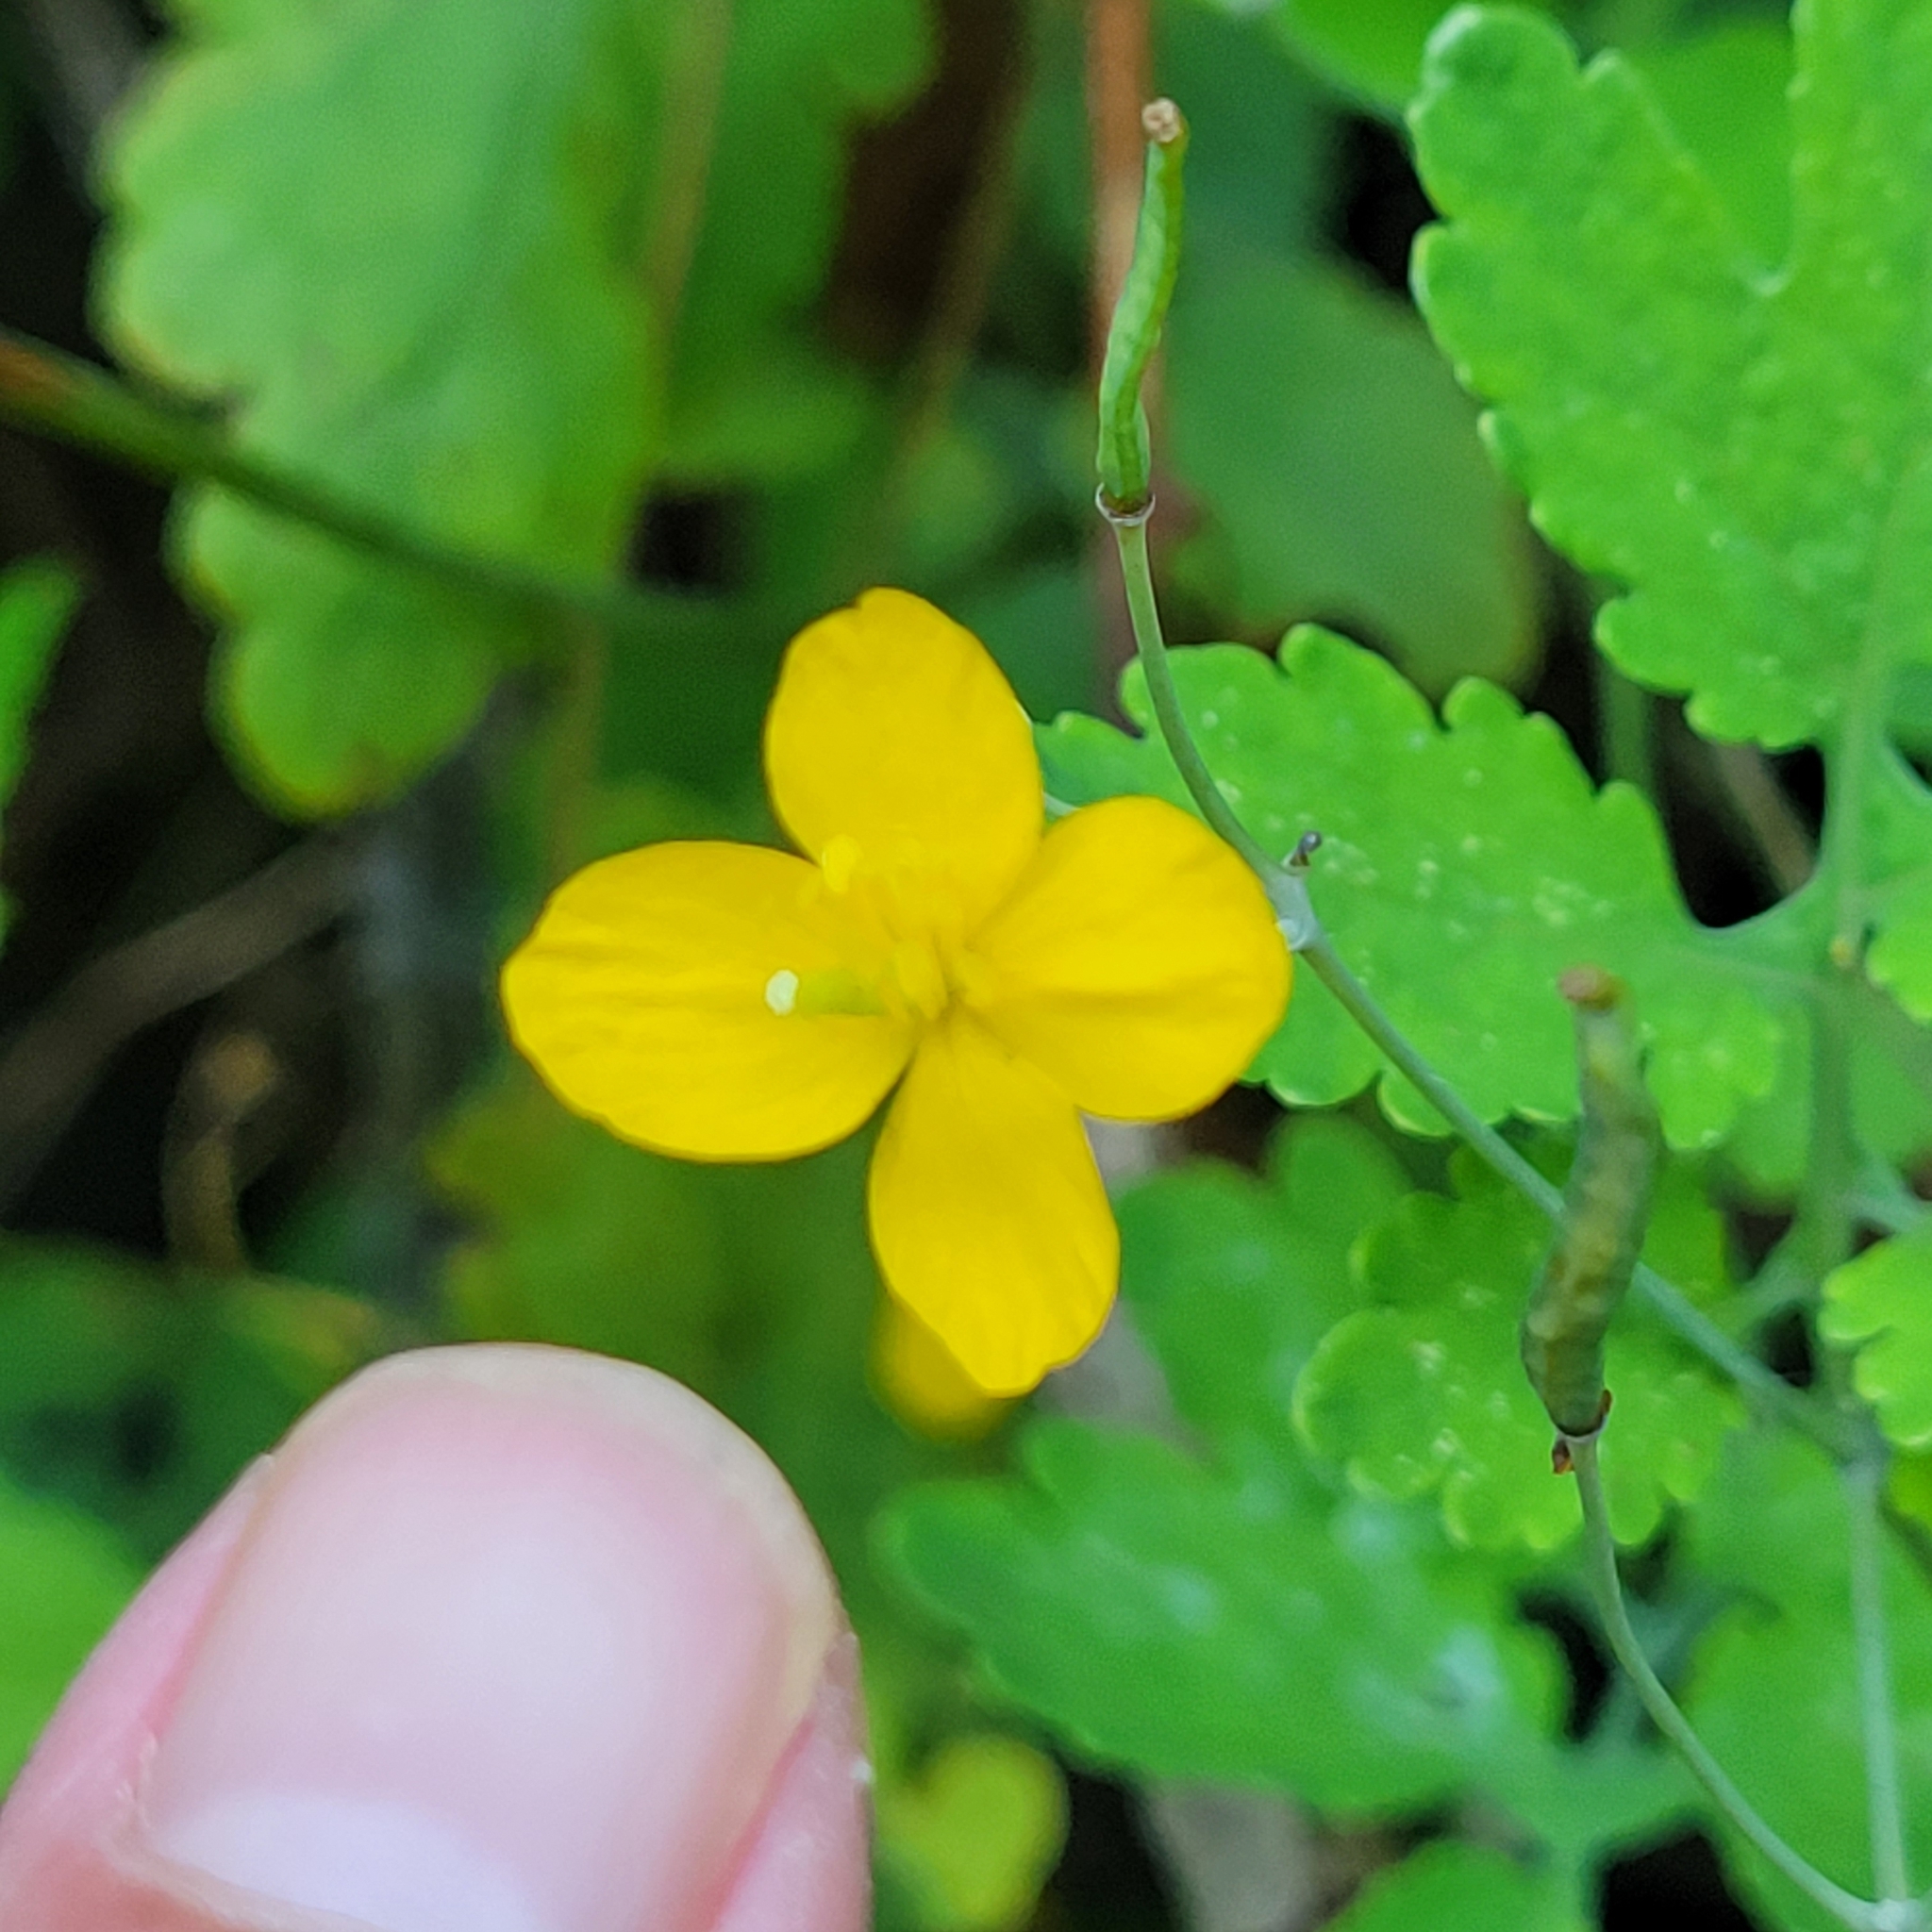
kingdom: Plantae
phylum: Tracheophyta
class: Magnoliopsida
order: Ranunculales
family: Papaveraceae
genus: Chelidonium
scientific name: Chelidonium majus
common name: Greater celandine
